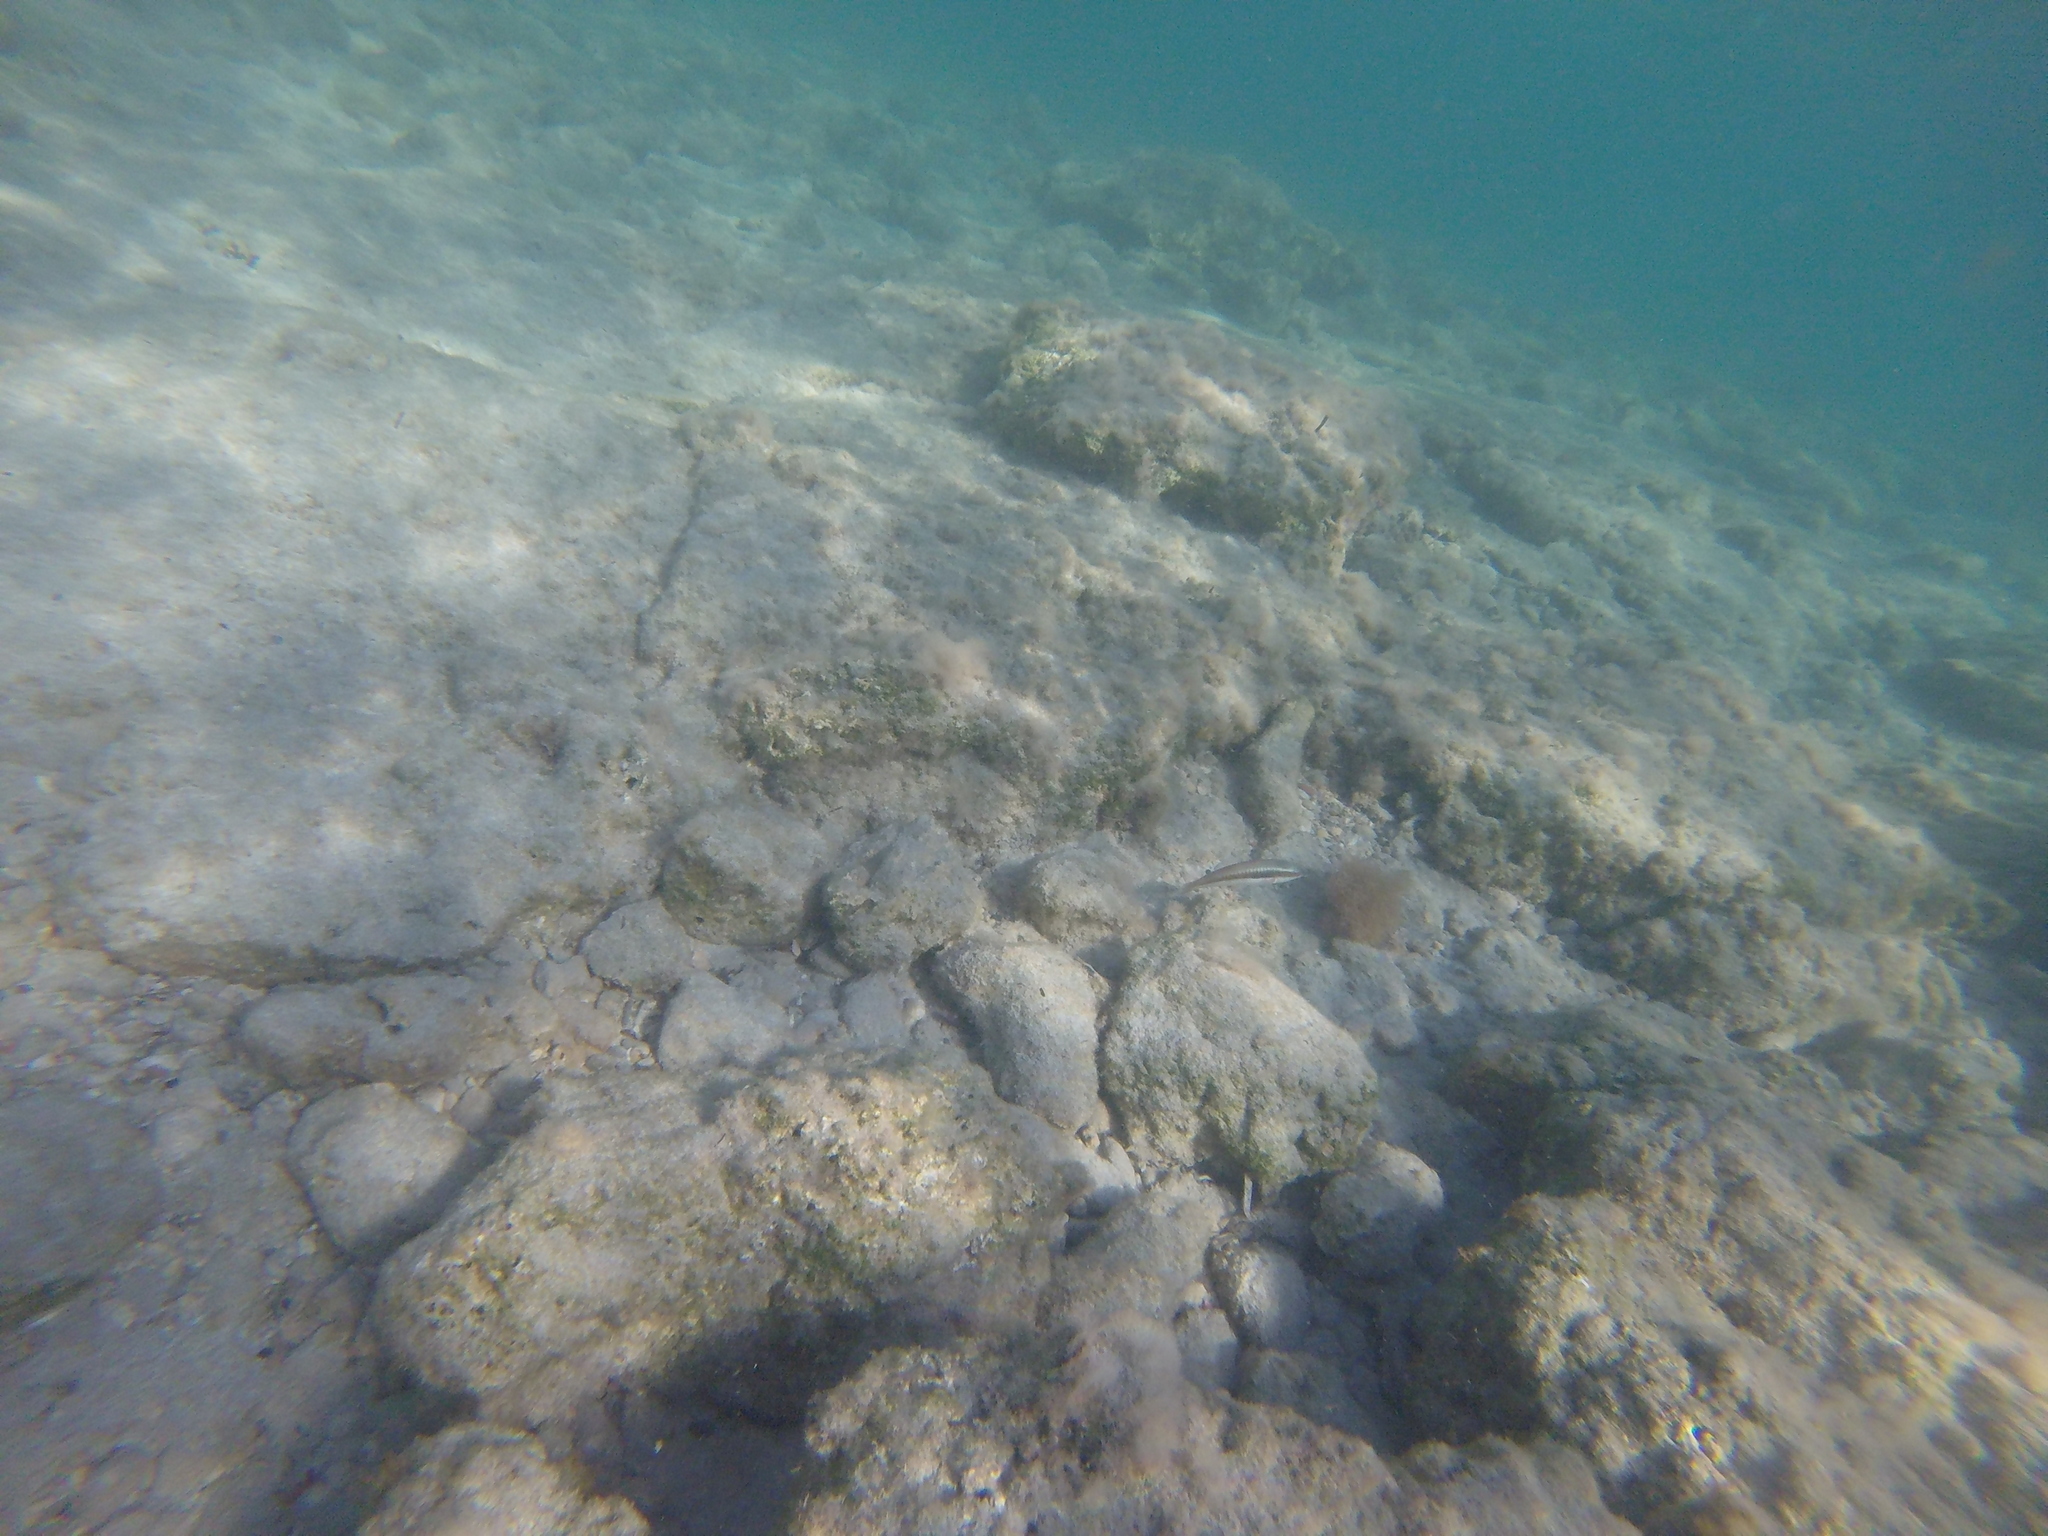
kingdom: Animalia
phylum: Chordata
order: Perciformes
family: Labridae
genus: Coris
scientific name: Coris julis
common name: Rainbow wrasse
